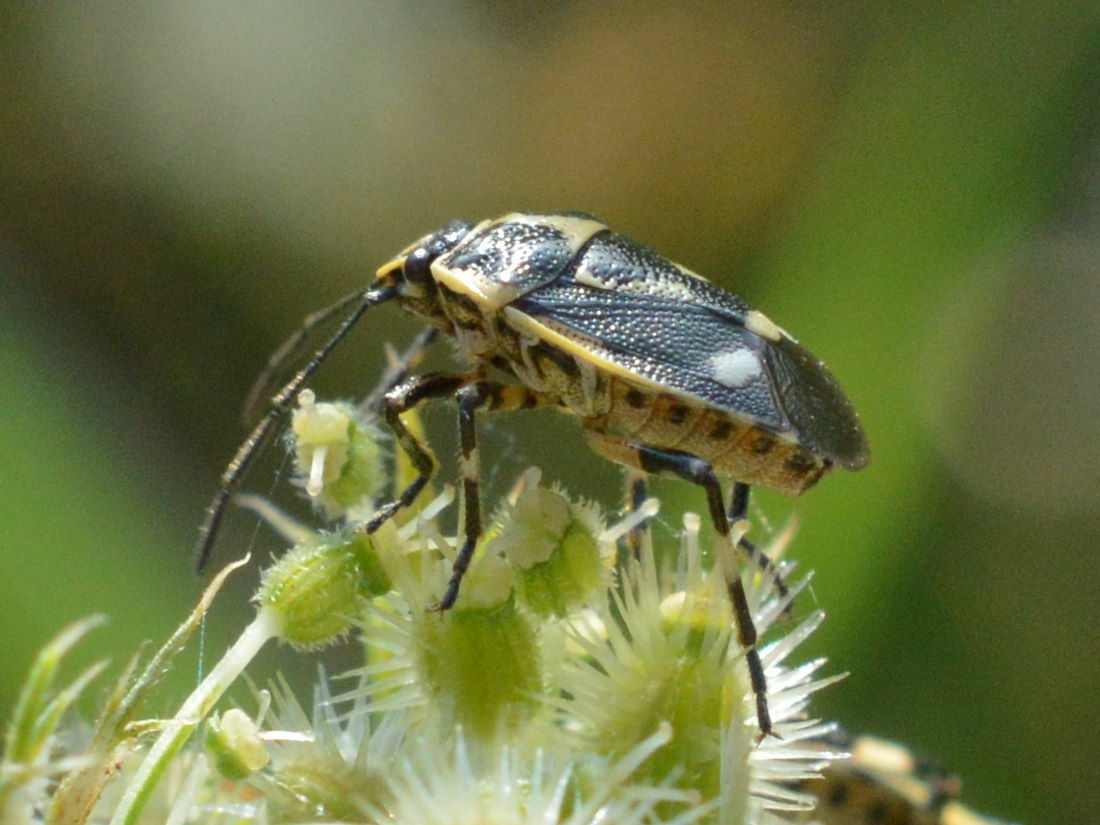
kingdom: Animalia
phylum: Arthropoda
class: Insecta
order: Hemiptera
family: Pentatomidae
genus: Eurydema
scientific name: Eurydema oleracea
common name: Cabbage bug
